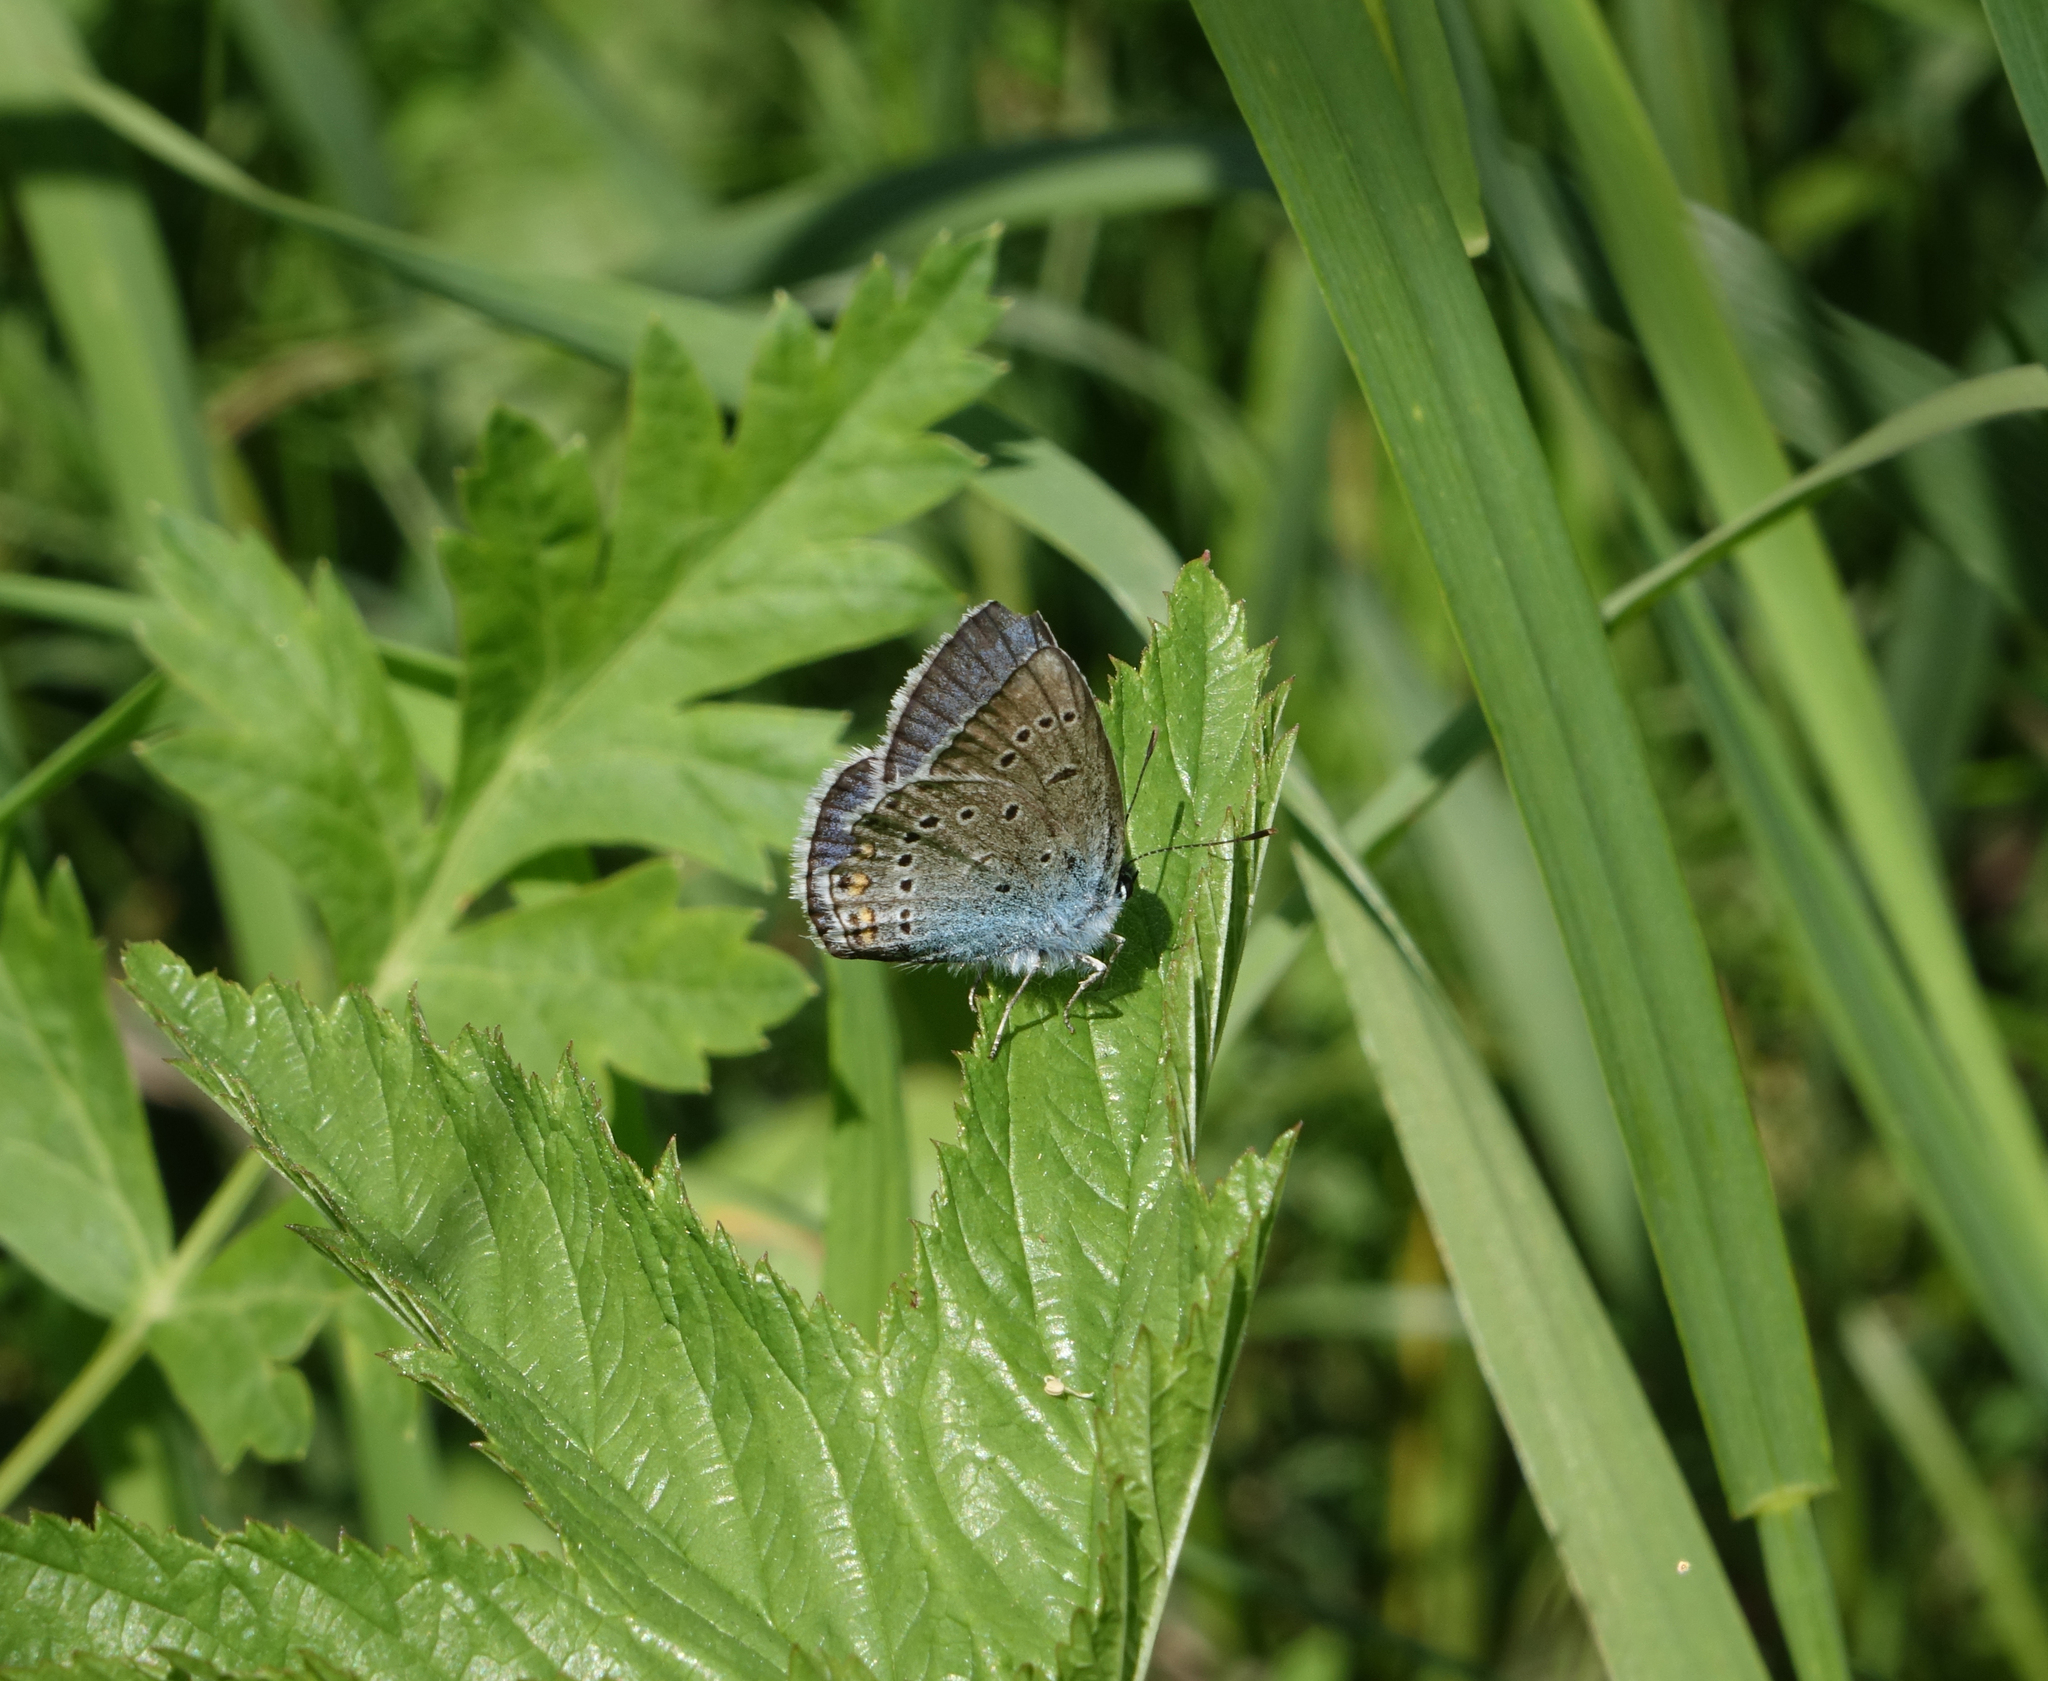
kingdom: Animalia
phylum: Arthropoda
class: Insecta
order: Lepidoptera
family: Lycaenidae
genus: Plebejus
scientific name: Plebejus amanda
